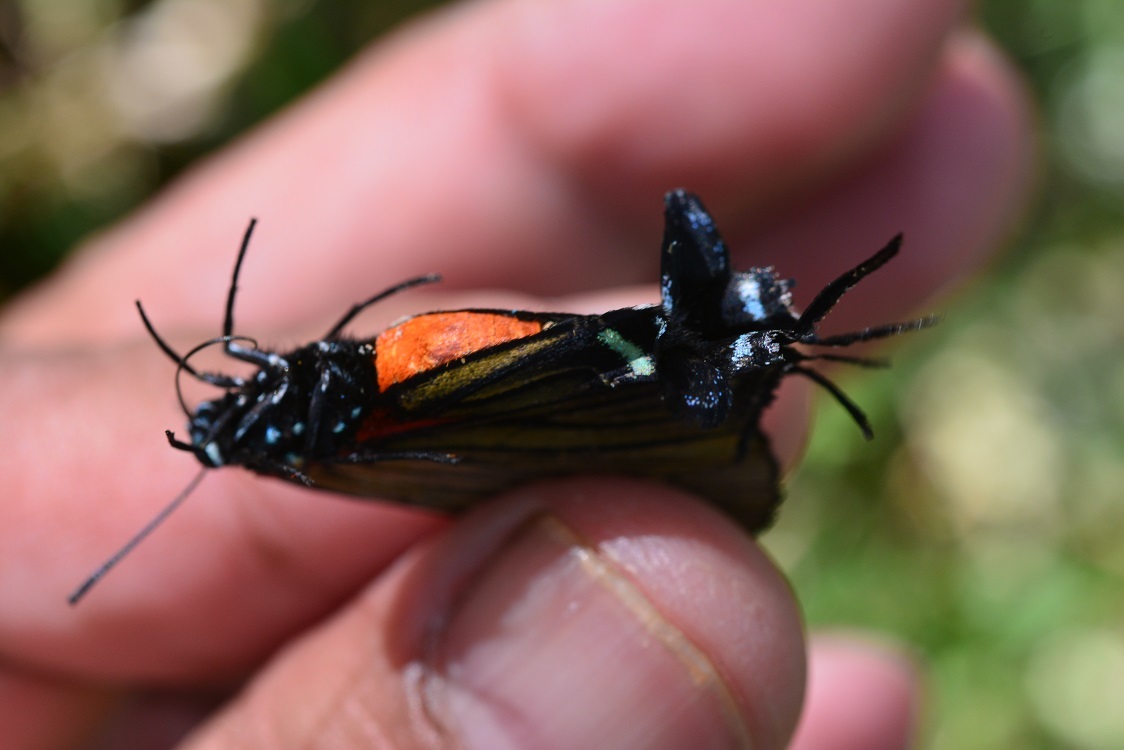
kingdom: Animalia
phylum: Arthropoda
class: Insecta
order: Lepidoptera
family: Lycaenidae
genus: Thecla
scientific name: Thecla polybe
